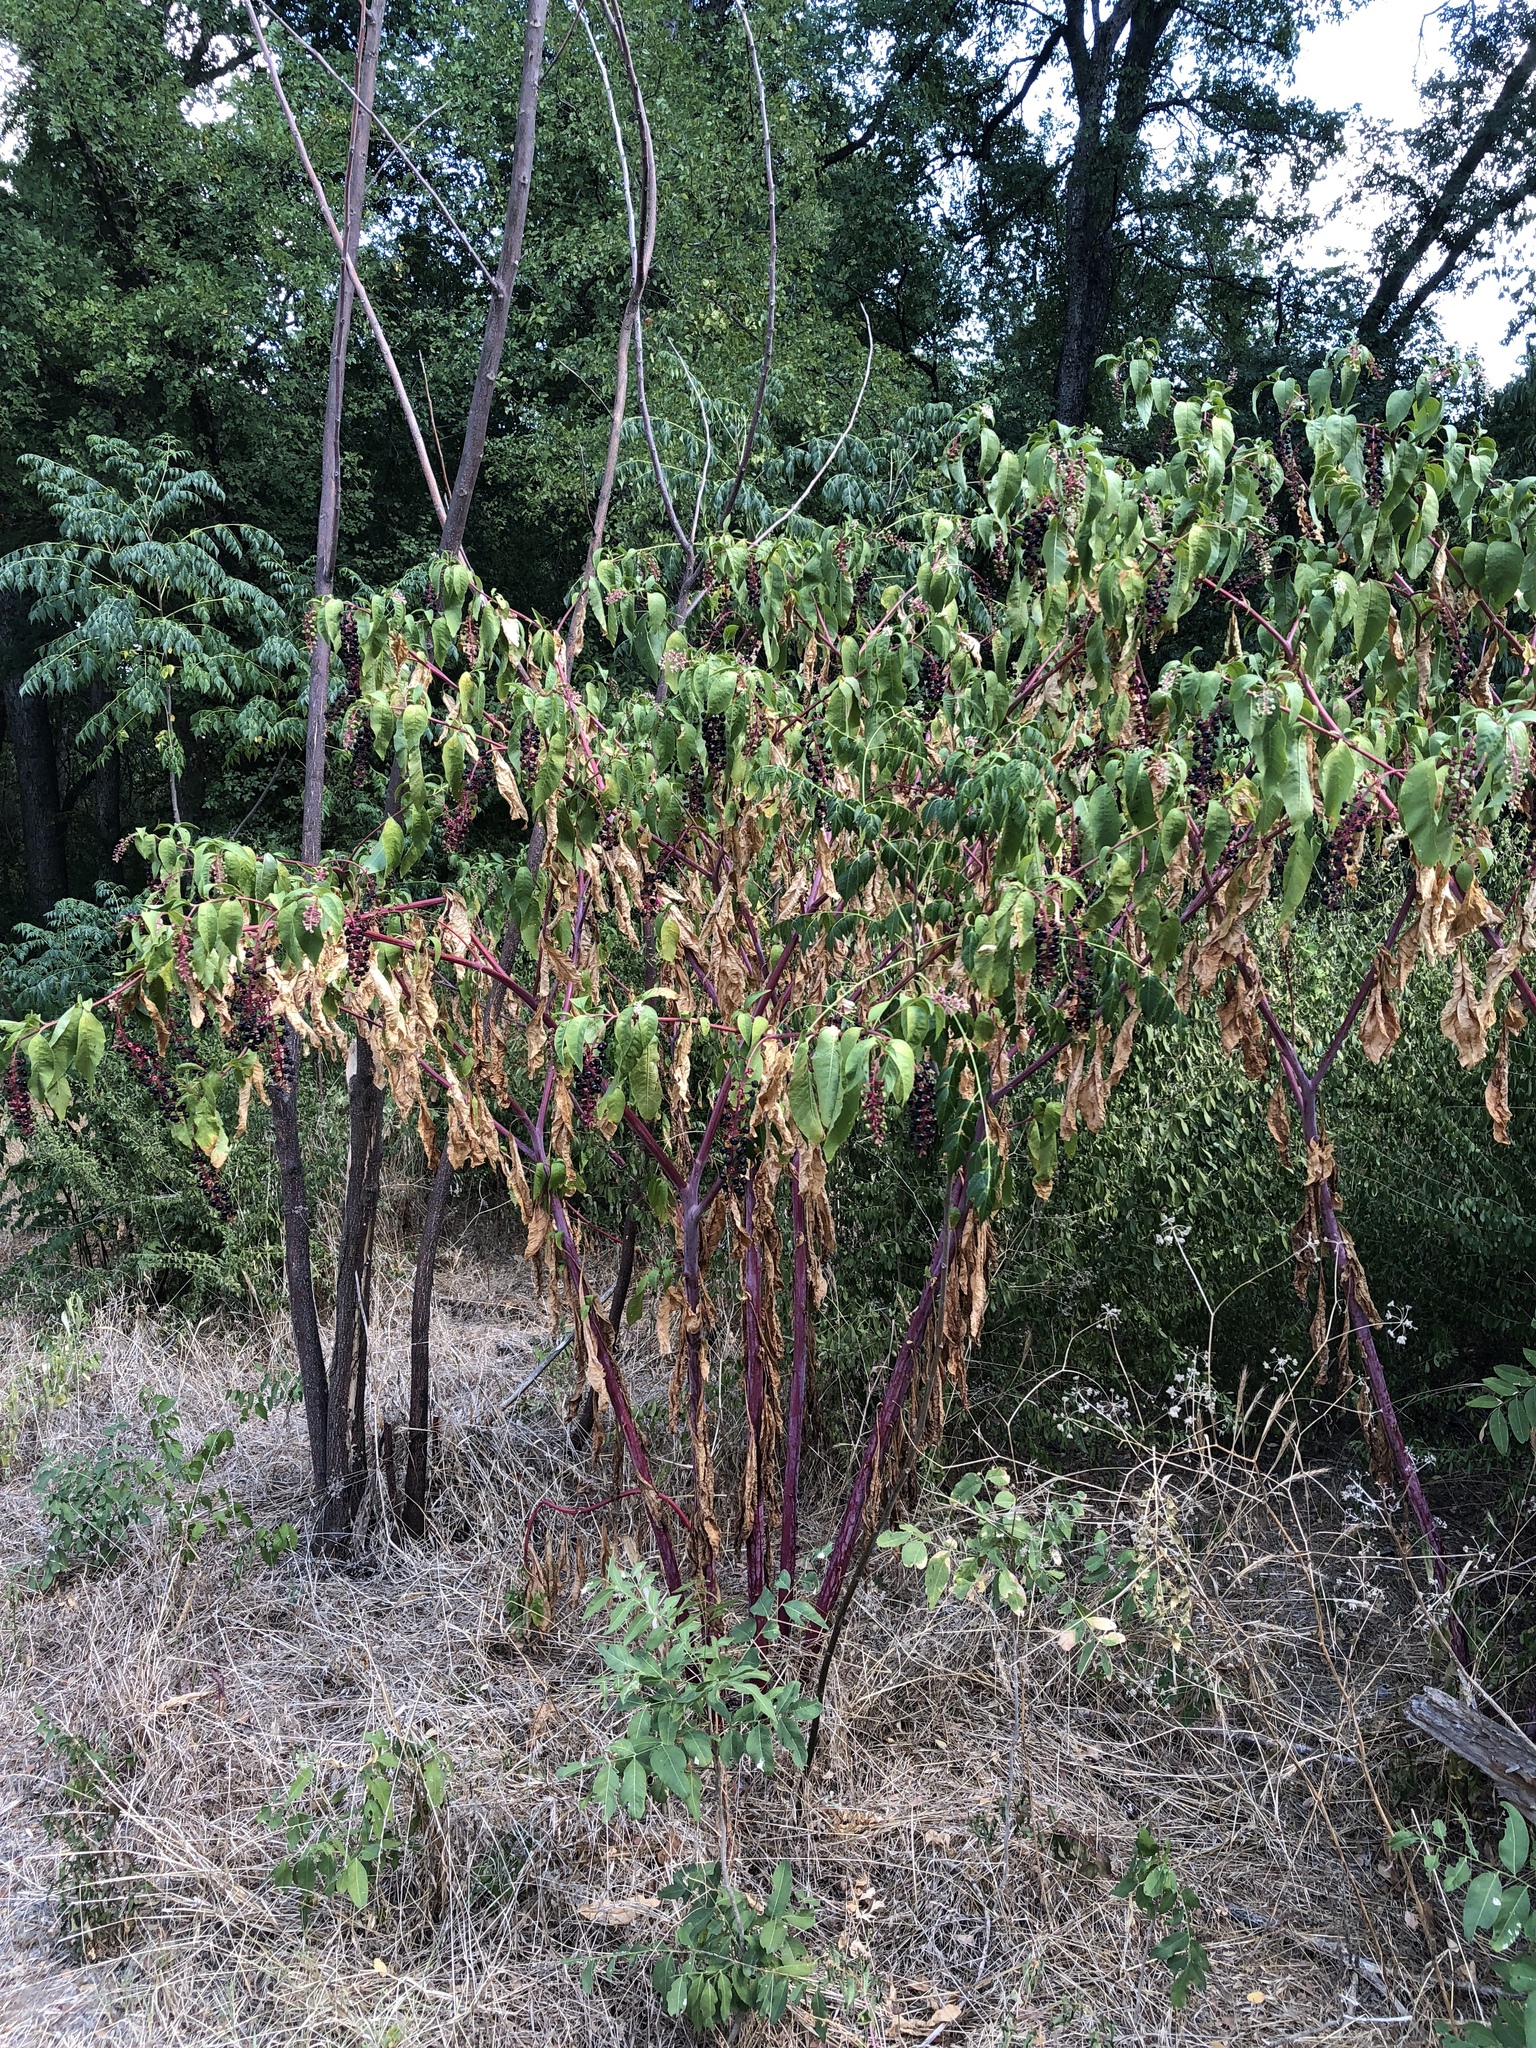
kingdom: Plantae
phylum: Tracheophyta
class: Magnoliopsida
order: Caryophyllales
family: Phytolaccaceae
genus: Phytolacca
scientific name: Phytolacca americana
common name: American pokeweed
